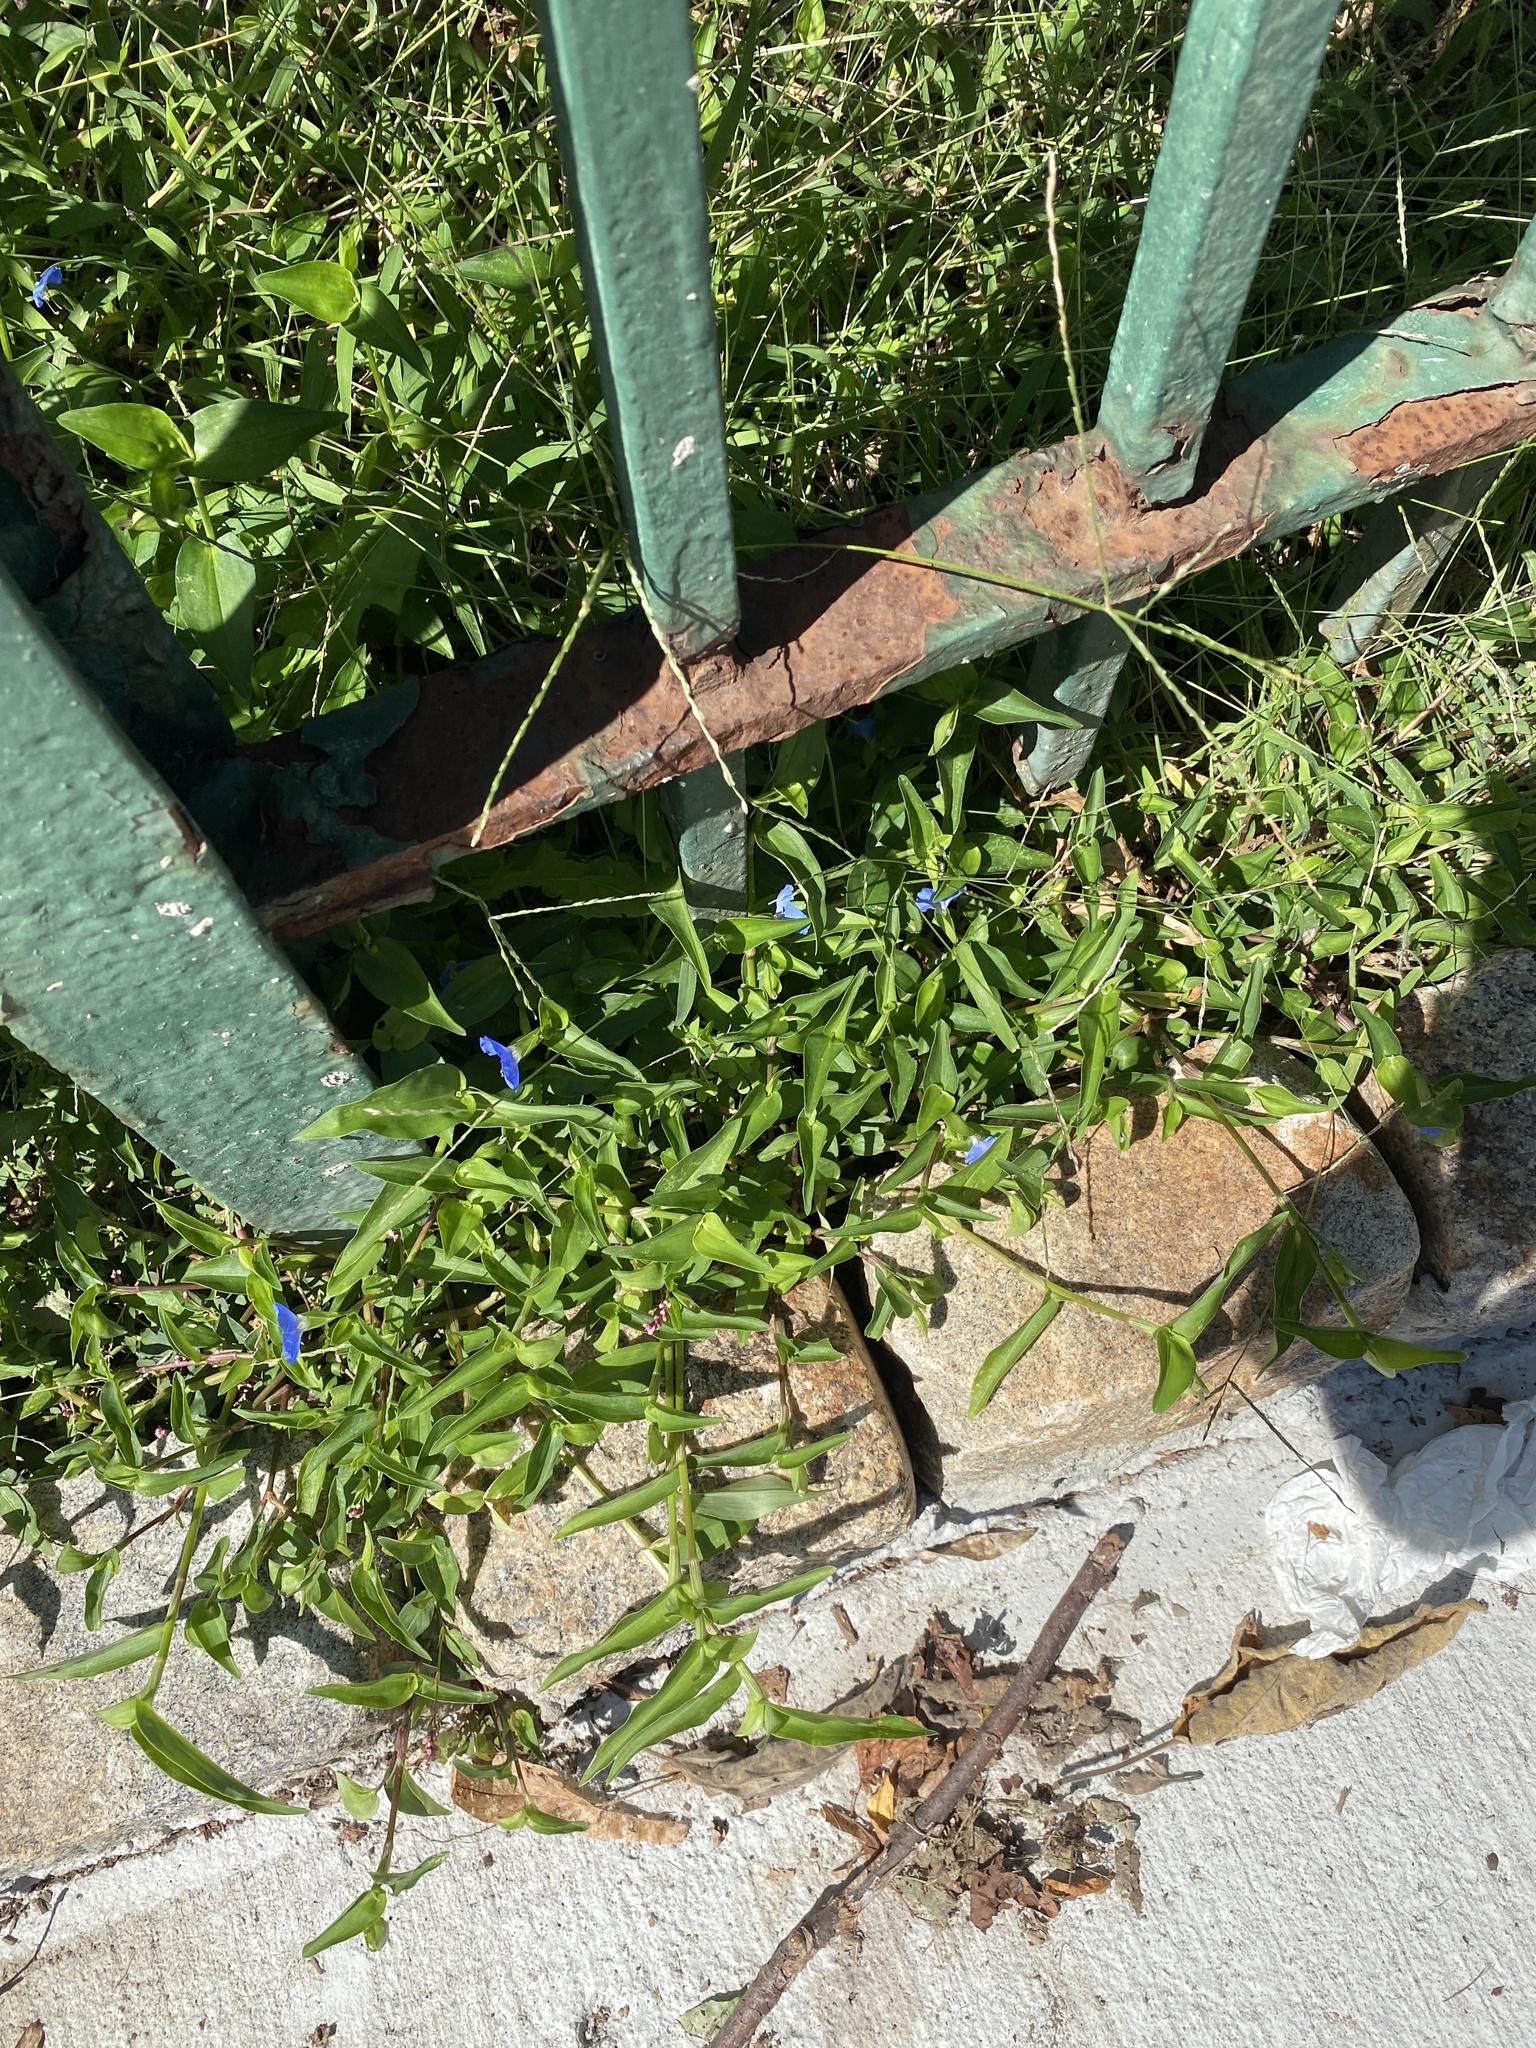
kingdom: Plantae
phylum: Tracheophyta
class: Liliopsida
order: Commelinales
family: Commelinaceae
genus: Commelina
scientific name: Commelina communis
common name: Asiatic dayflower
